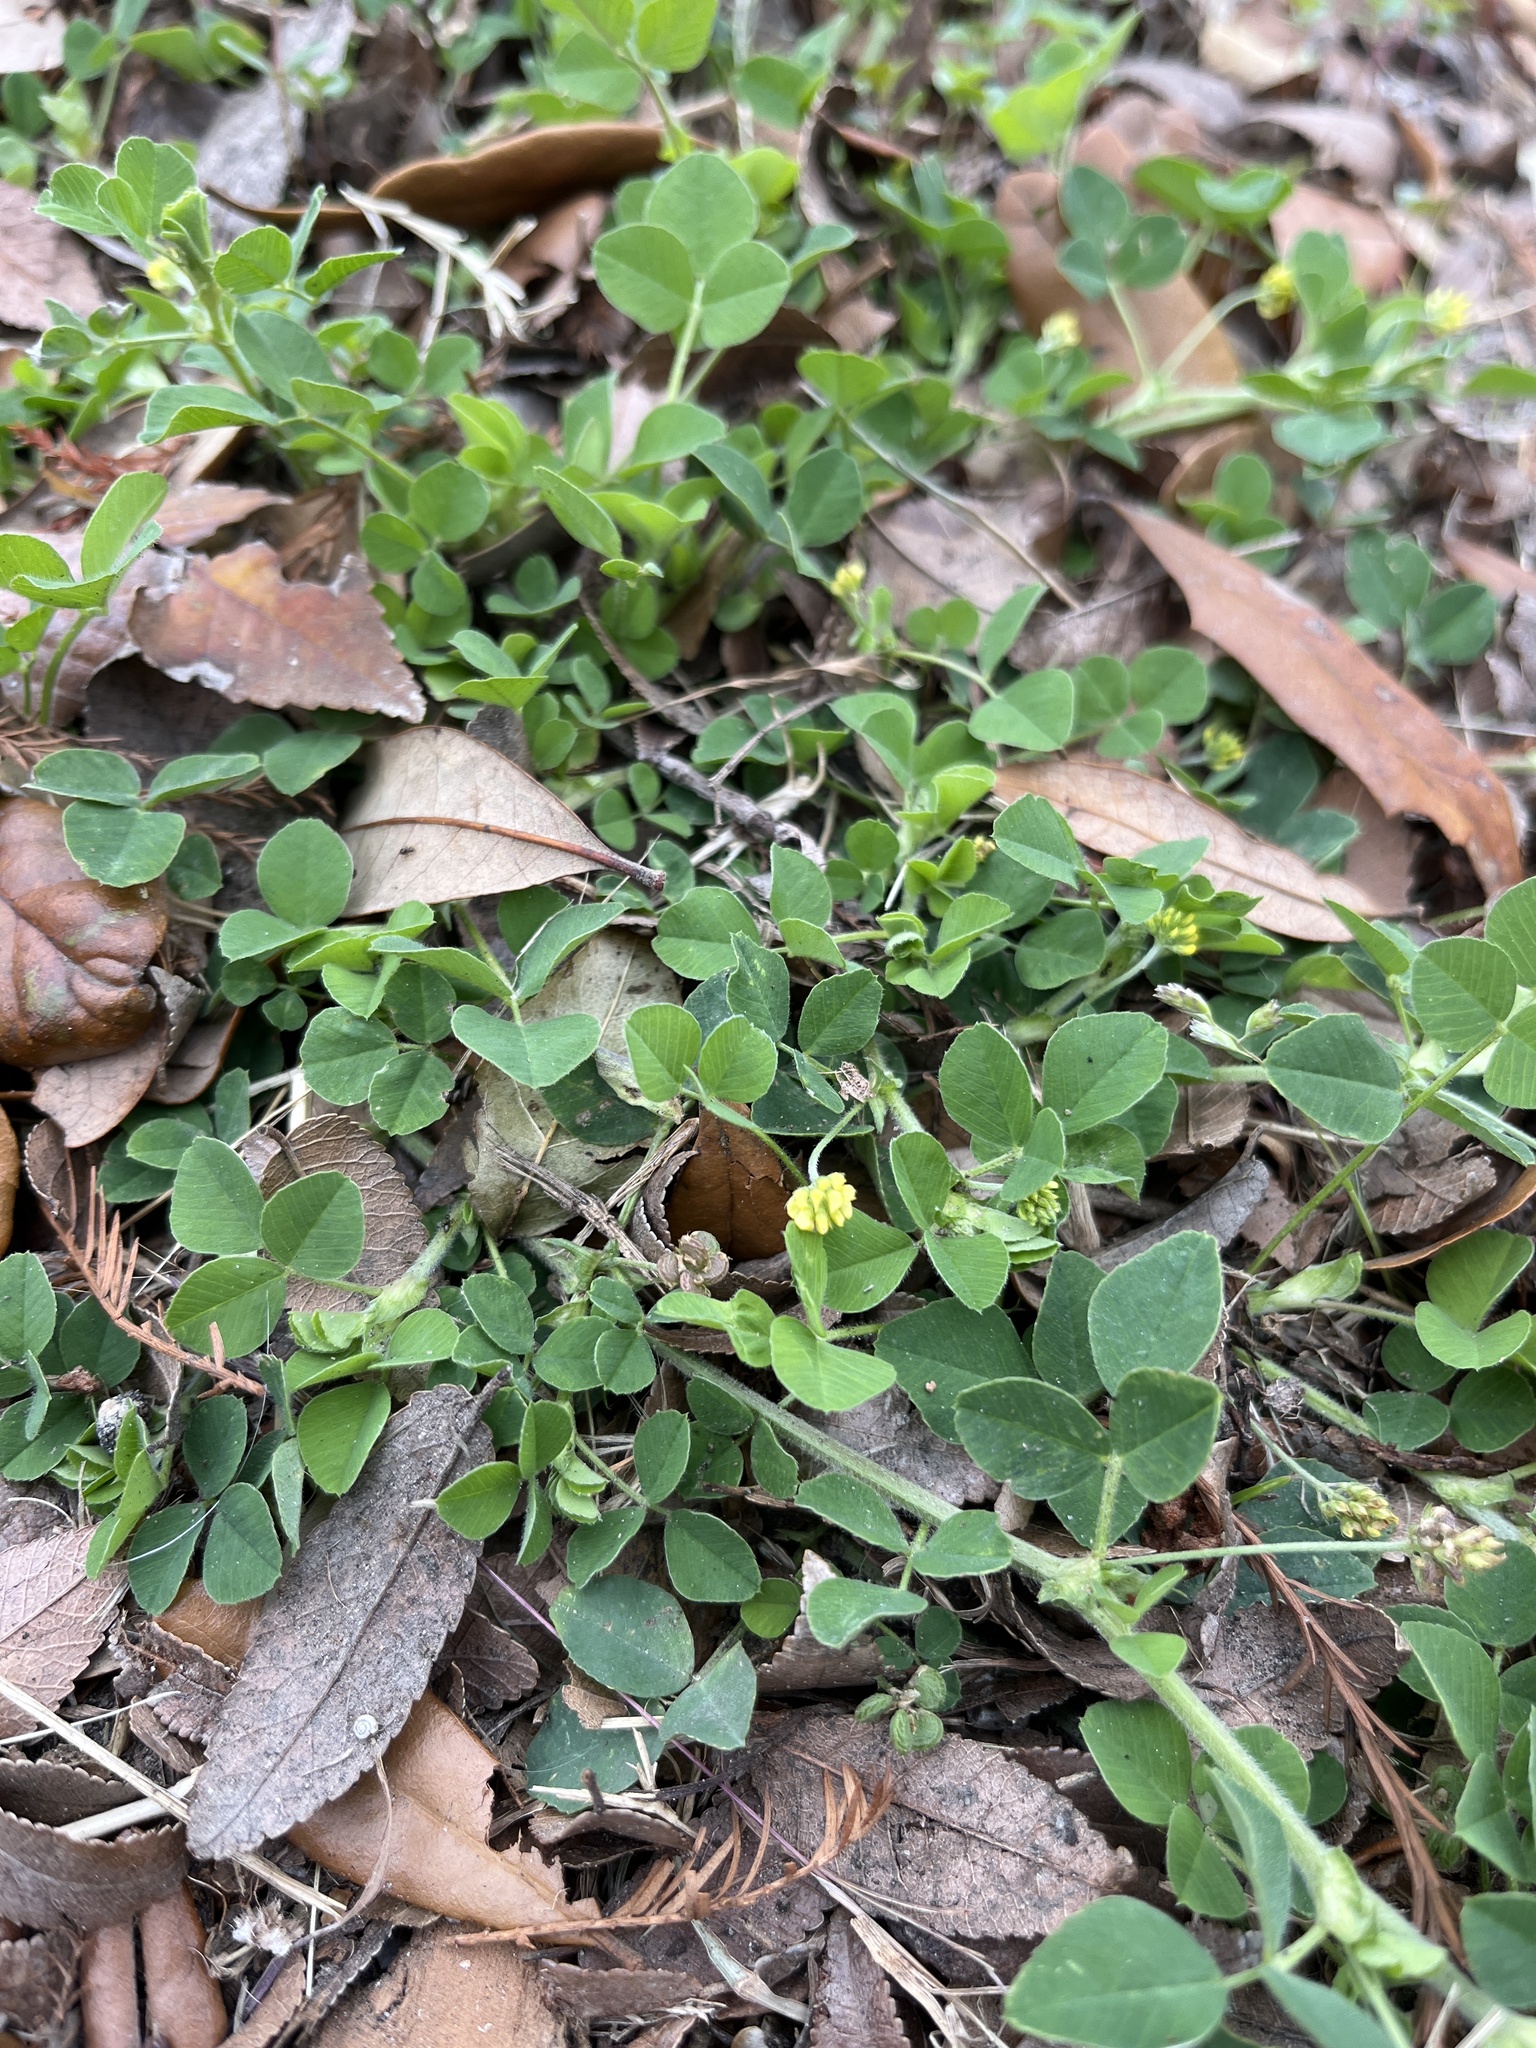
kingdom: Plantae
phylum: Tracheophyta
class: Magnoliopsida
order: Fabales
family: Fabaceae
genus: Medicago
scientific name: Medicago lupulina
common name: Black medick
